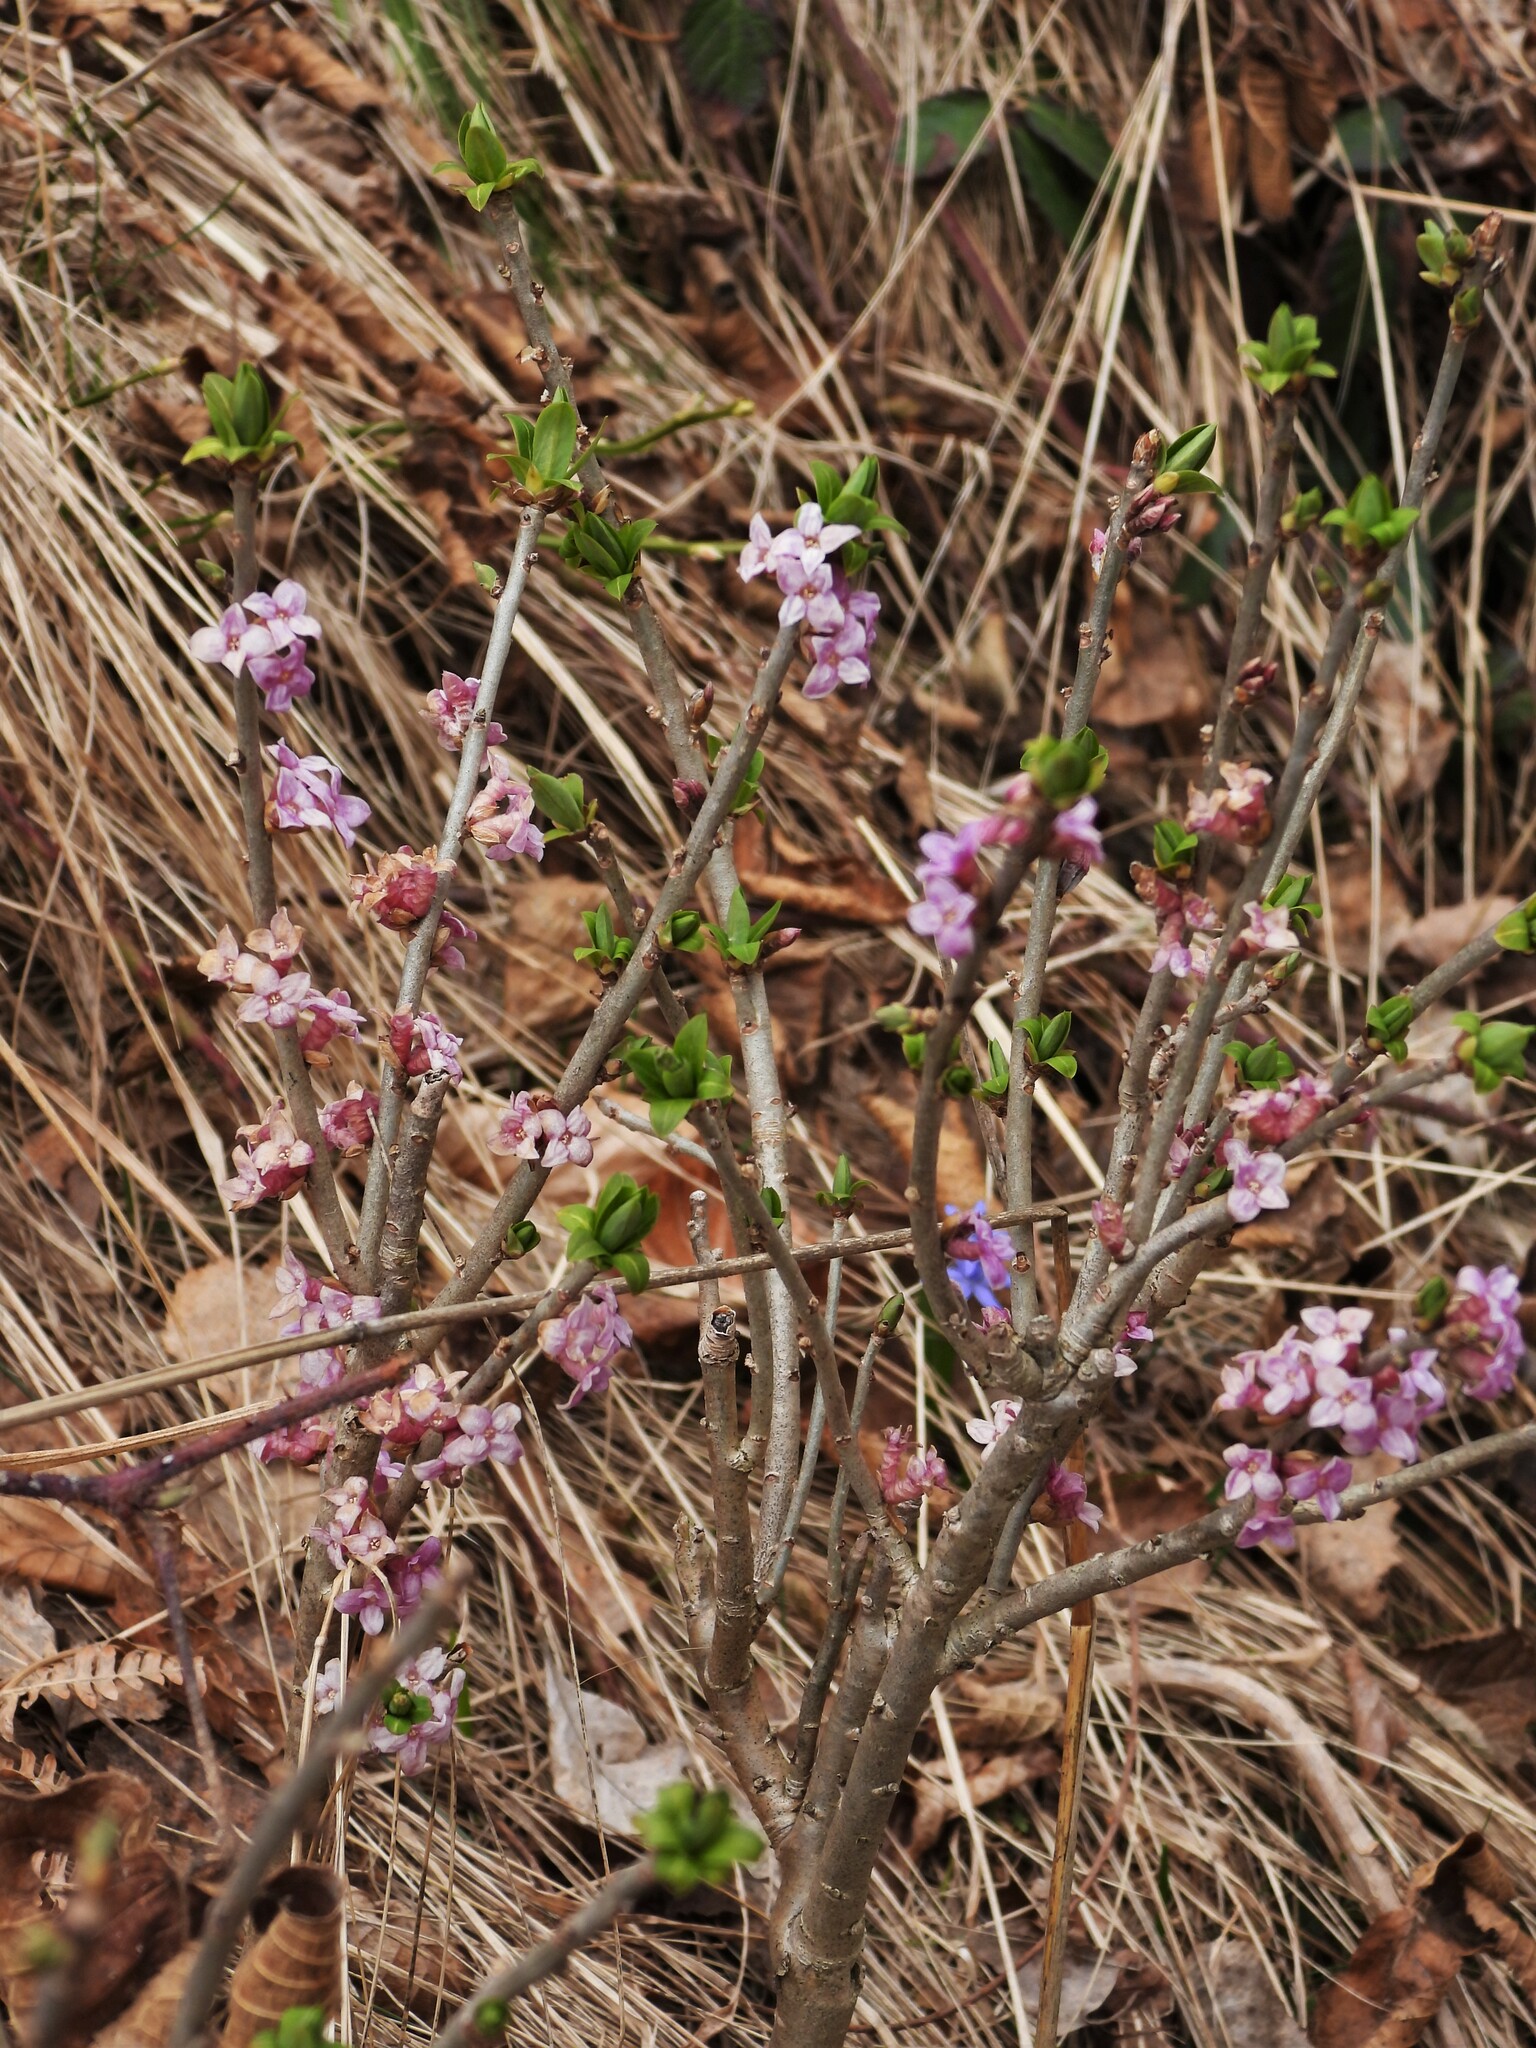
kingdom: Plantae
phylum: Tracheophyta
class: Magnoliopsida
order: Malvales
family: Thymelaeaceae
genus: Daphne
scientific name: Daphne mezereum
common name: Mezereon
